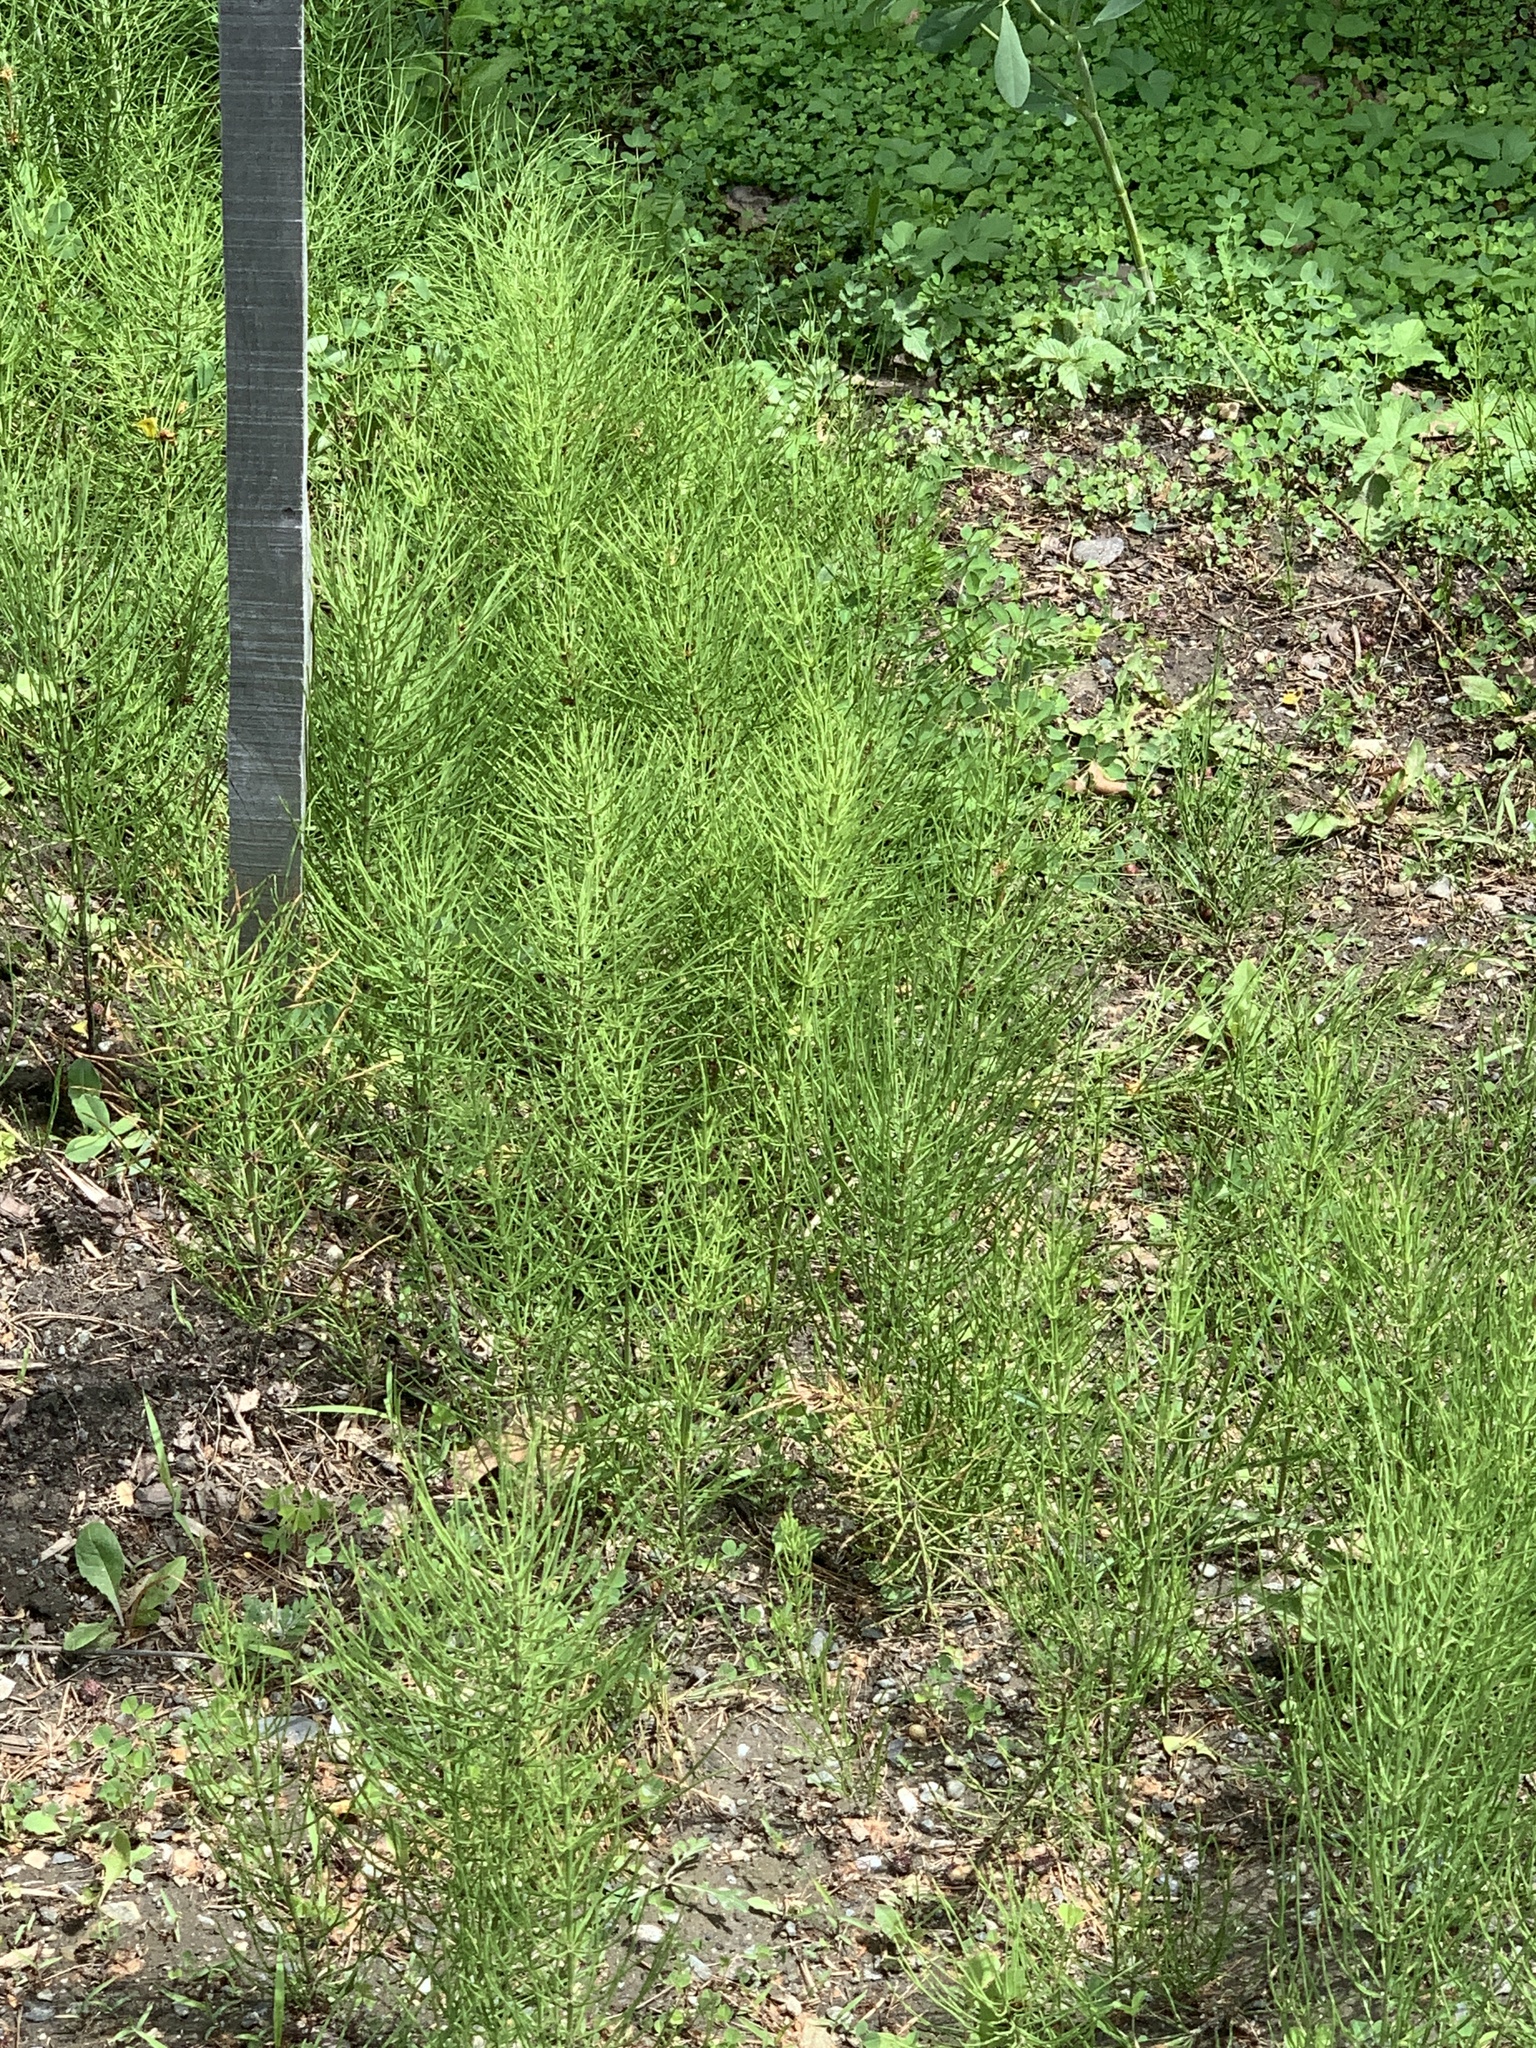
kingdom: Plantae
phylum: Tracheophyta
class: Polypodiopsida
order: Equisetales
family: Equisetaceae
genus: Equisetum
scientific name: Equisetum arvense
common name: Field horsetail
